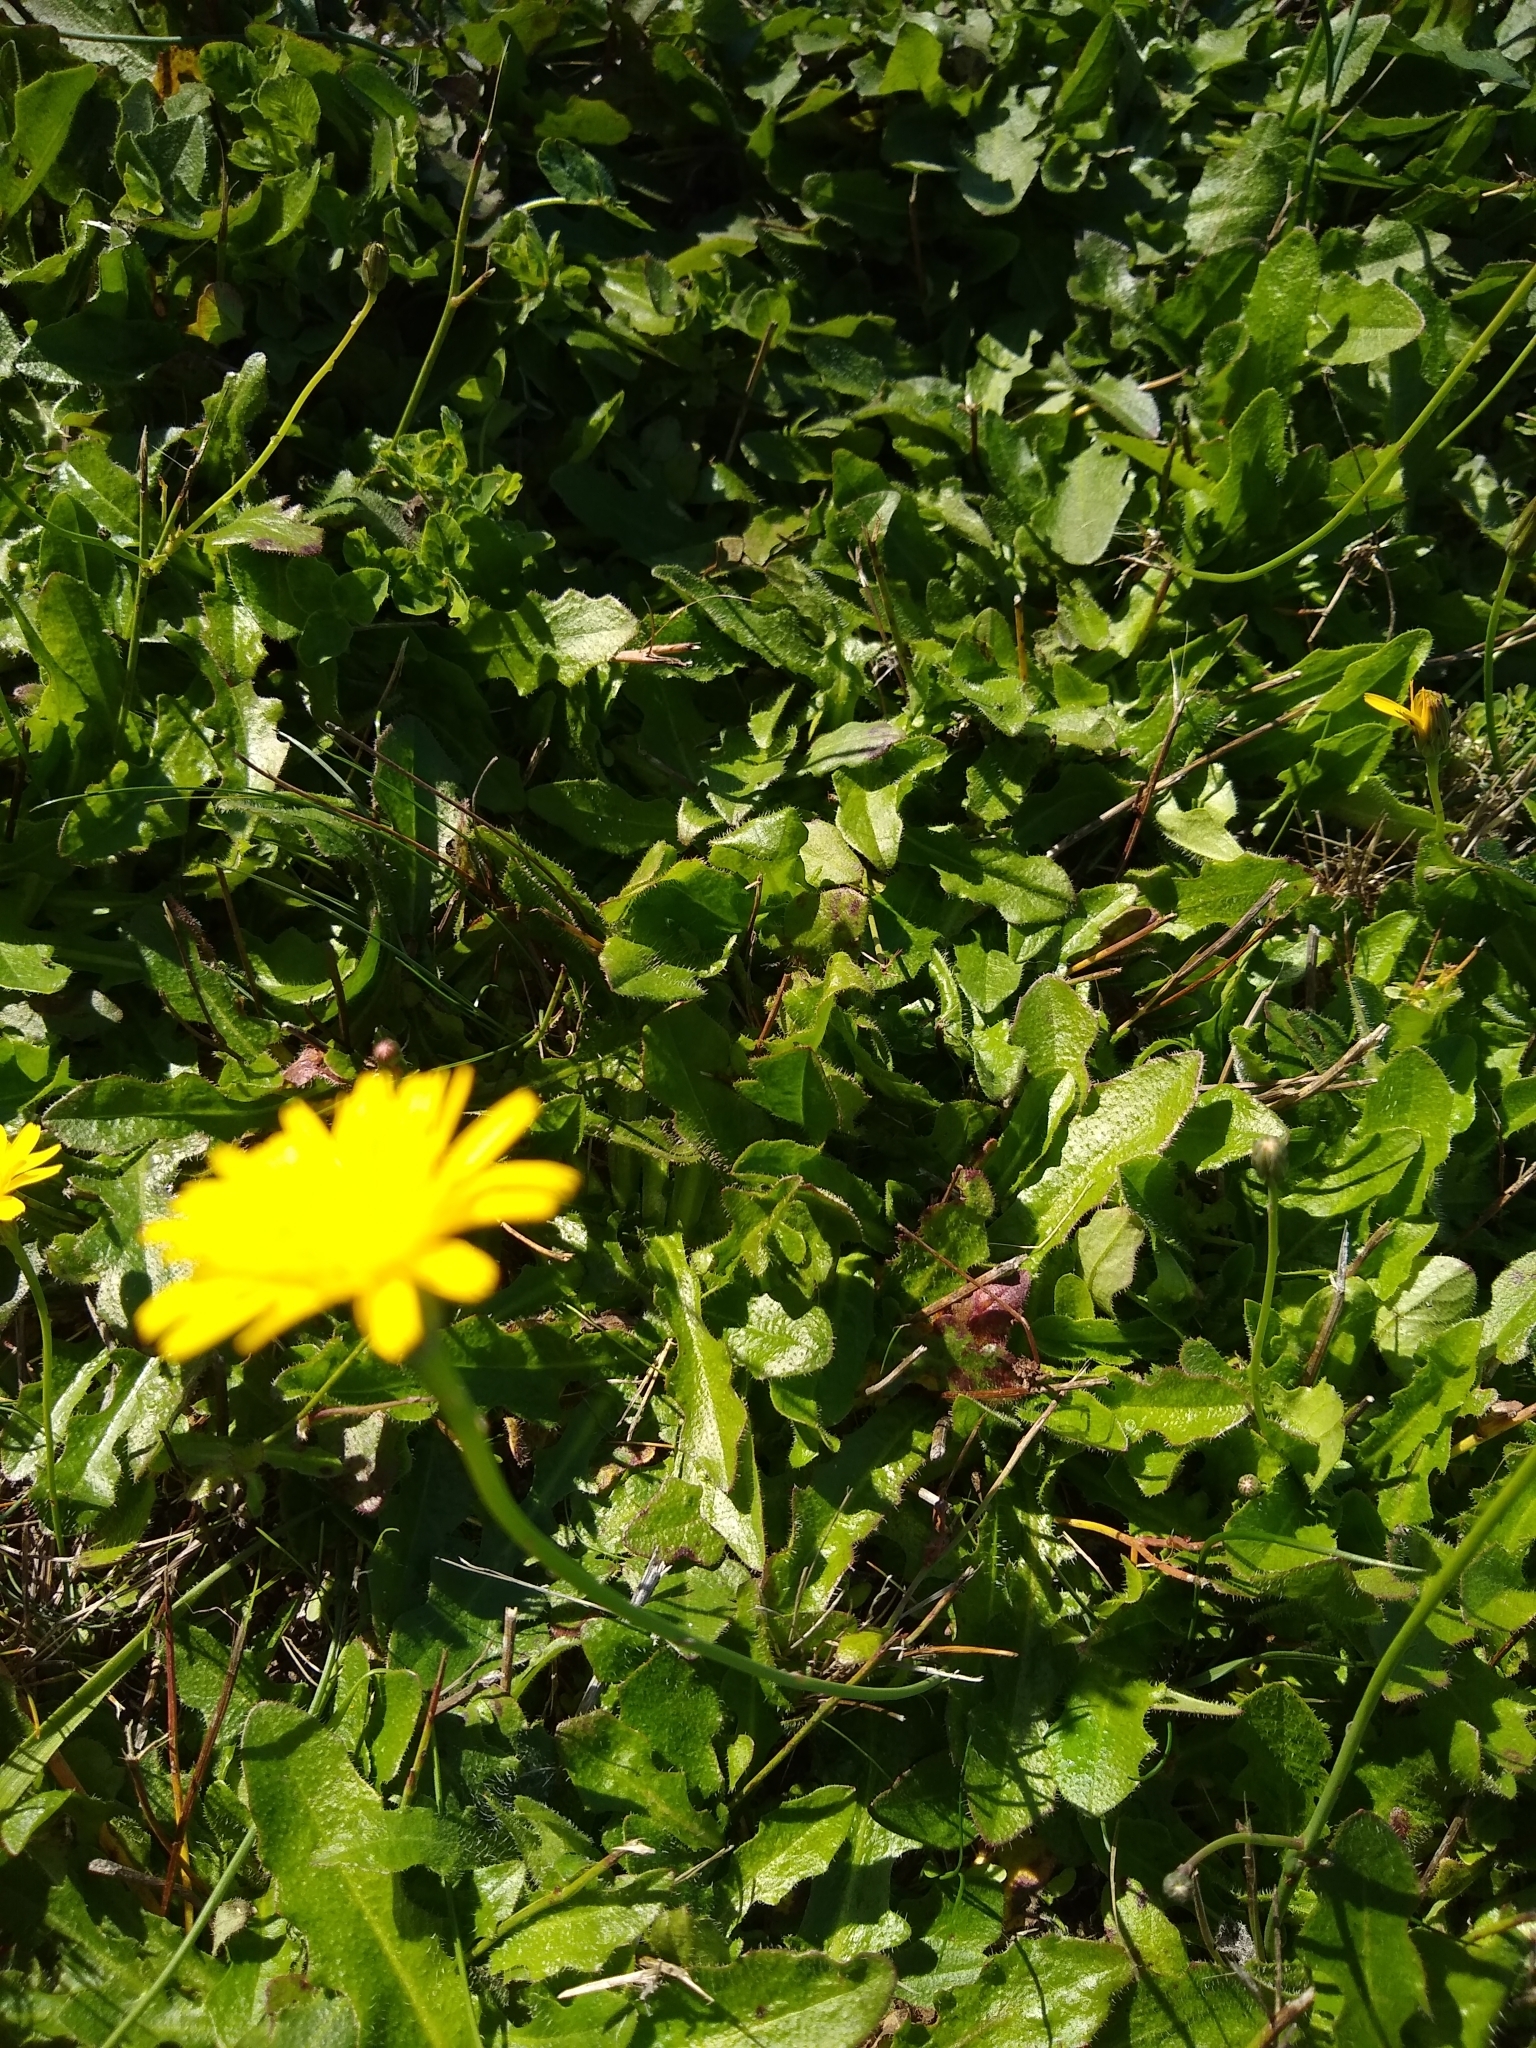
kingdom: Plantae
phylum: Tracheophyta
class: Magnoliopsida
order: Asterales
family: Asteraceae
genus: Hypochaeris
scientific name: Hypochaeris radicata
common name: Flatweed
